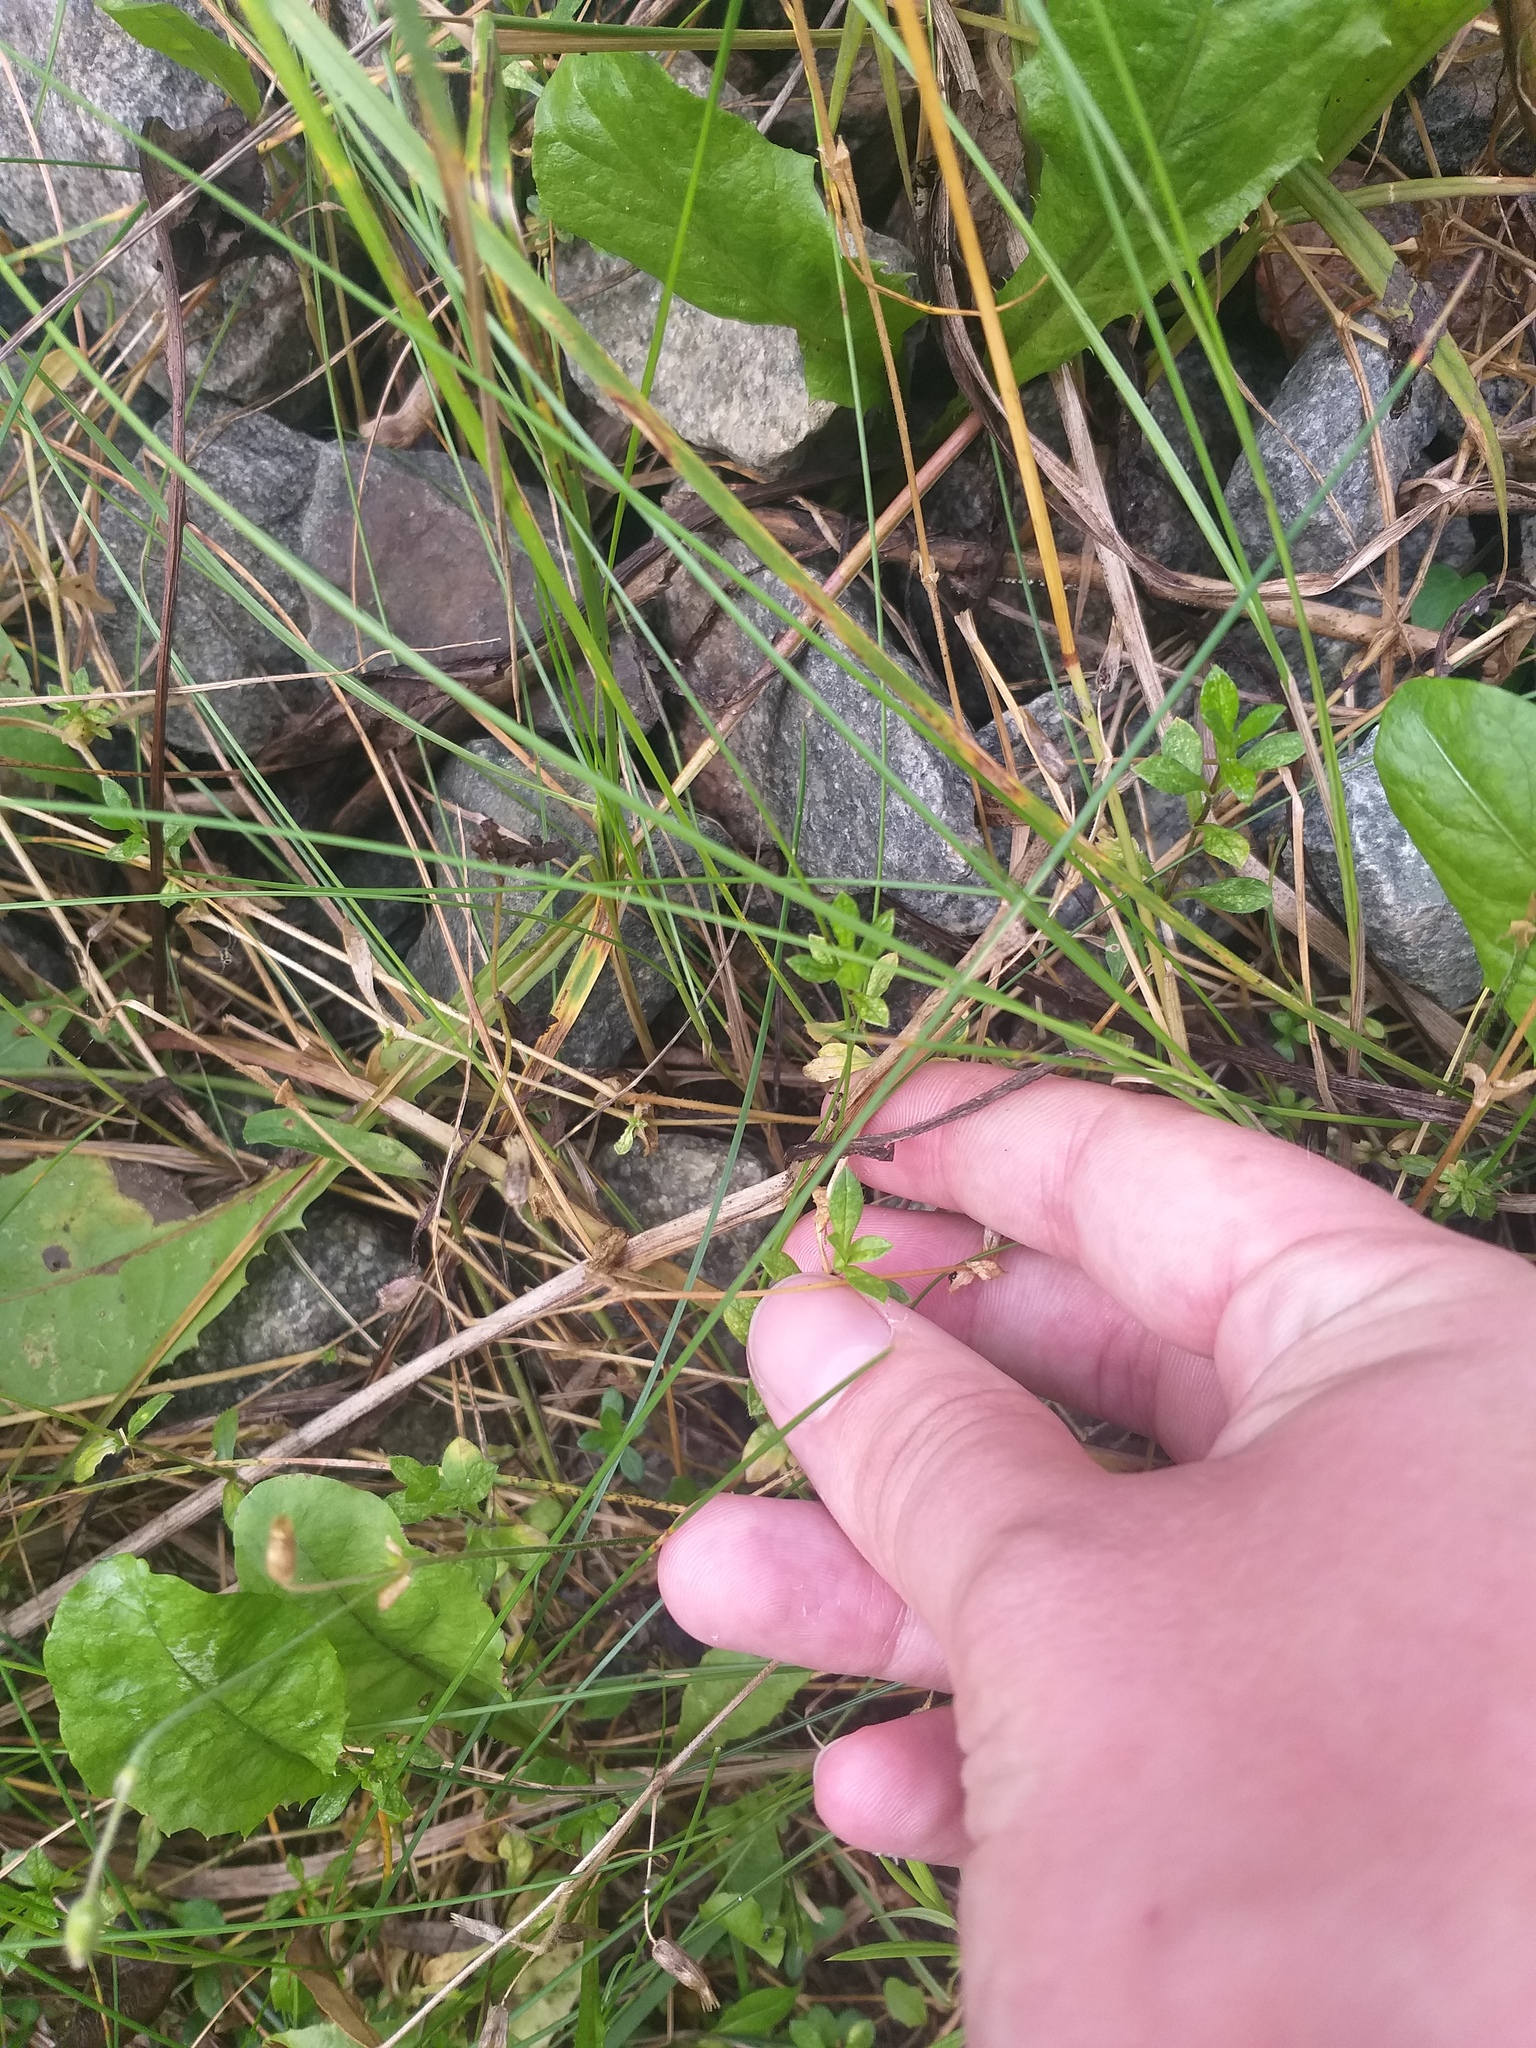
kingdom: Plantae
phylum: Tracheophyta
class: Magnoliopsida
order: Caryophyllales
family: Caryophyllaceae
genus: Stellaria
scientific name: Stellaria graminea
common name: Grass-like starwort
